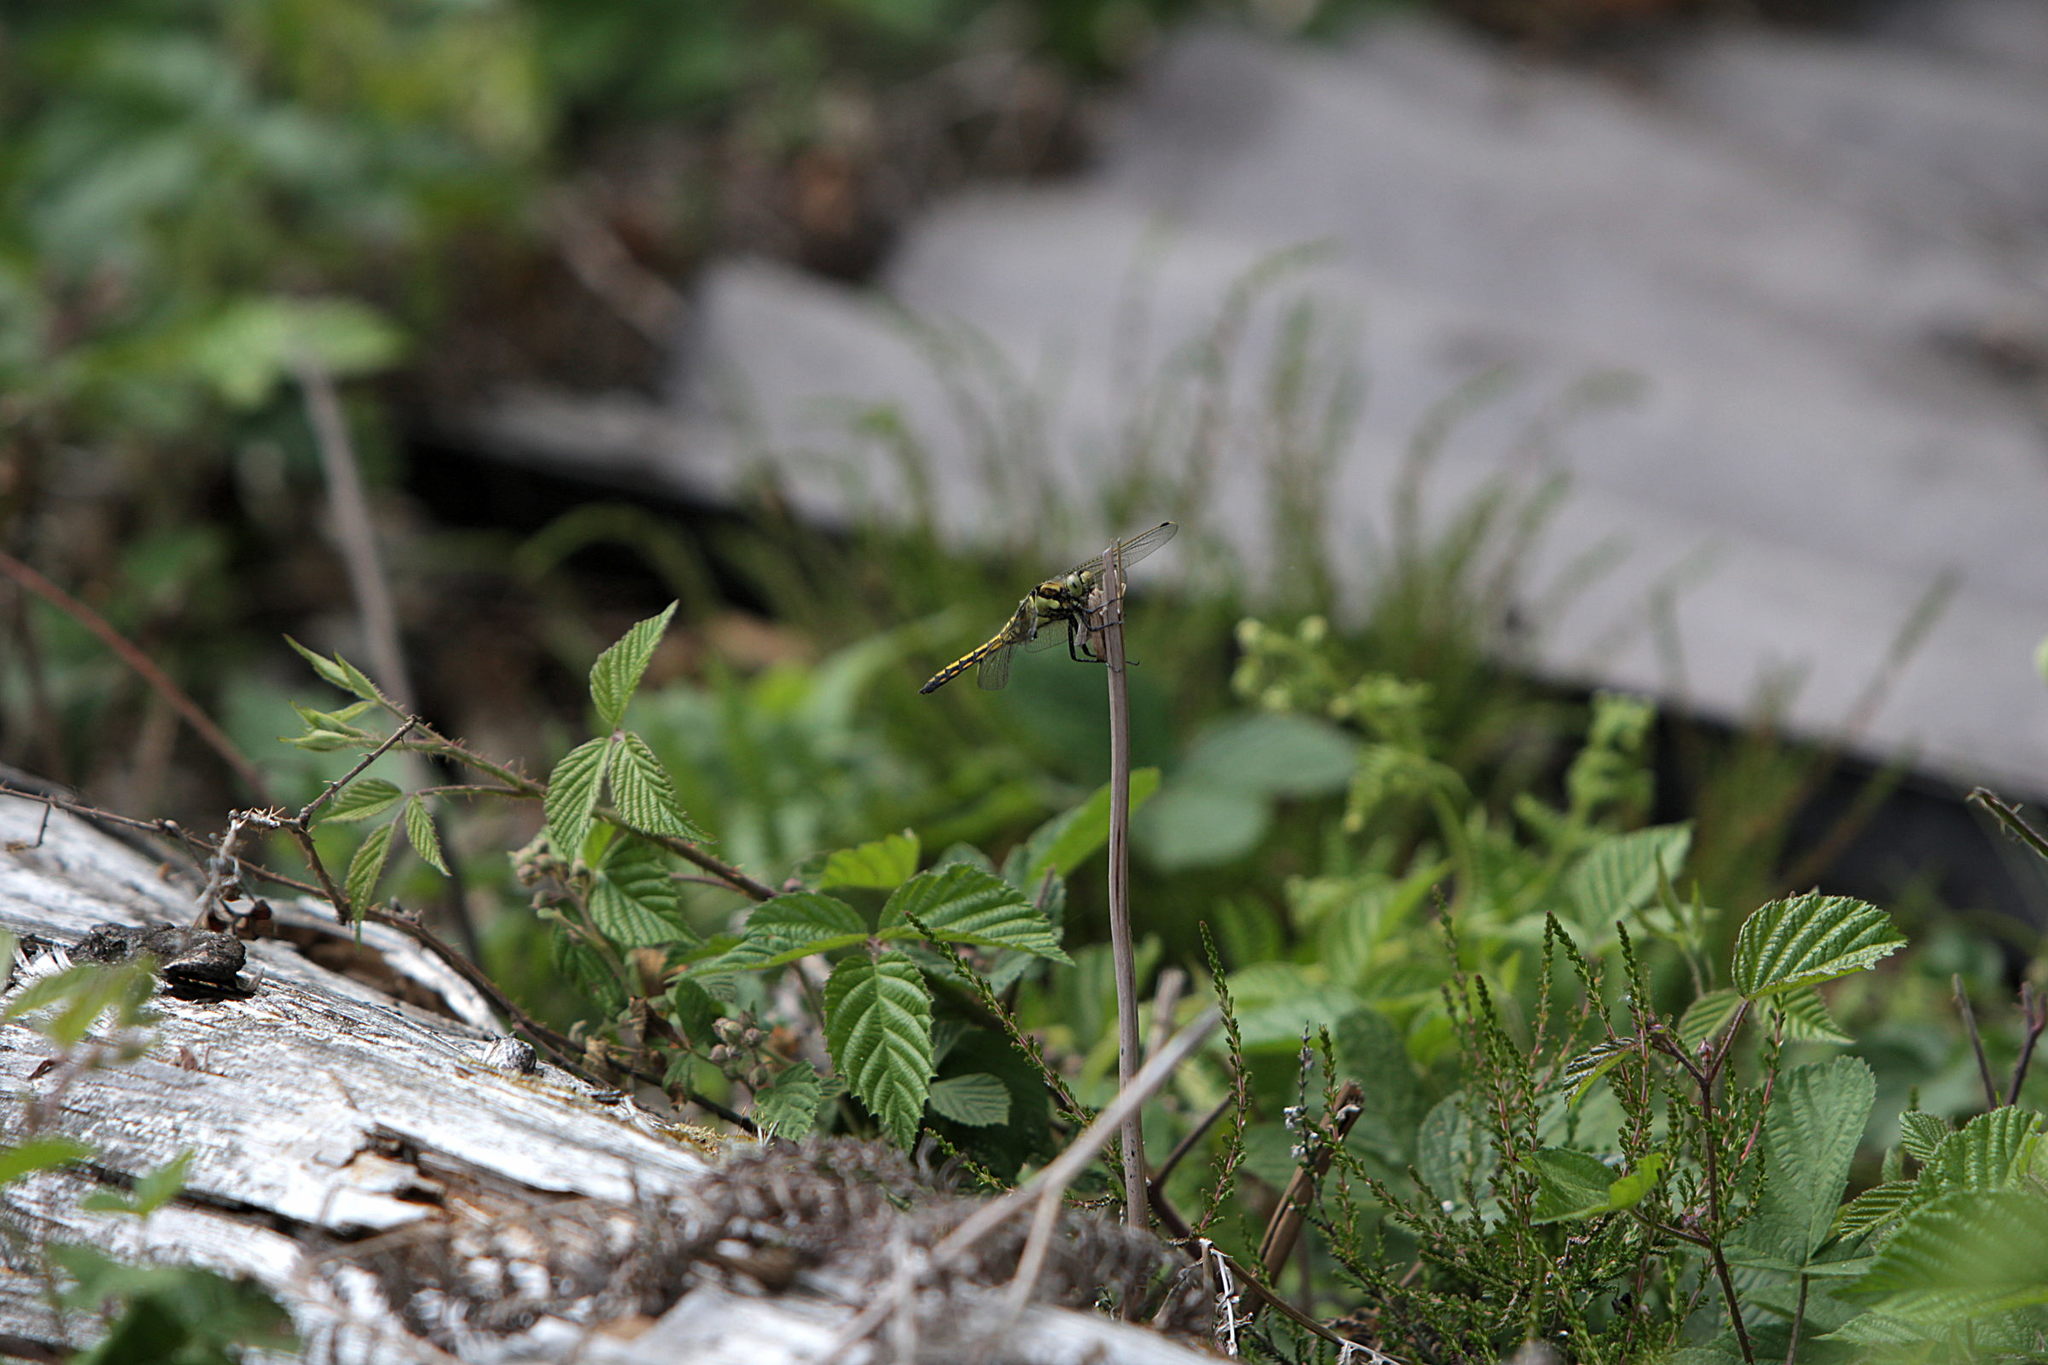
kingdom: Animalia
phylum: Arthropoda
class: Insecta
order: Odonata
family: Libellulidae
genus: Orthetrum
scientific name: Orthetrum cancellatum
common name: Black-tailed skimmer
